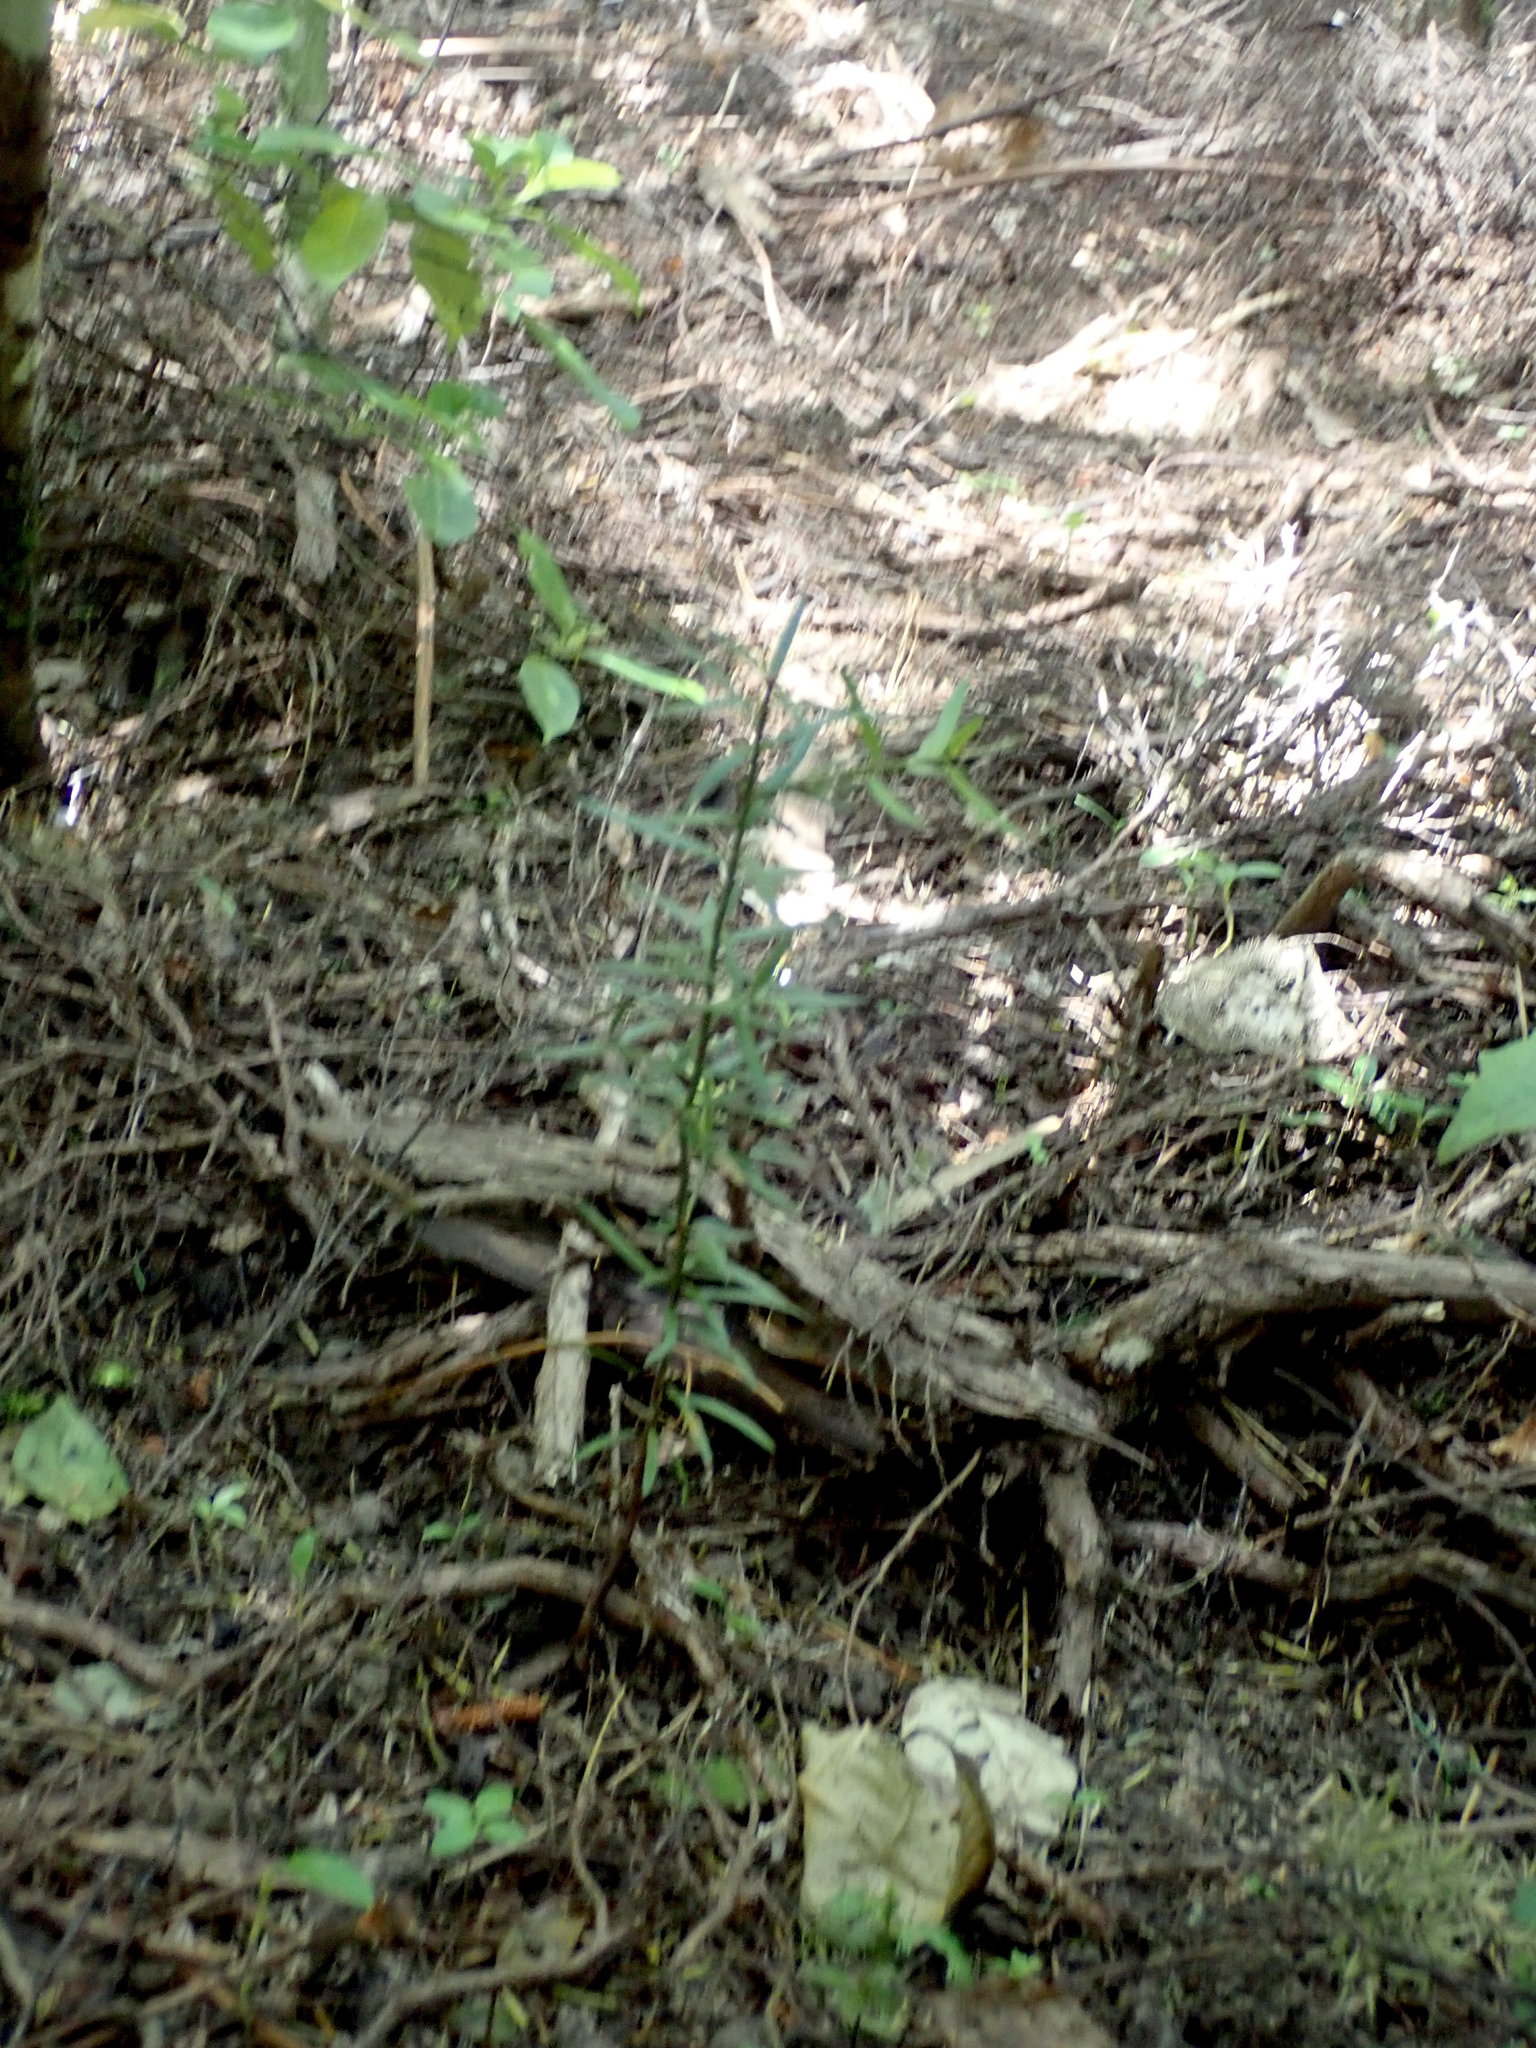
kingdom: Plantae
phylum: Tracheophyta
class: Pinopsida
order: Pinales
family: Podocarpaceae
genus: Podocarpus
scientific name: Podocarpus totara
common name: Totara
